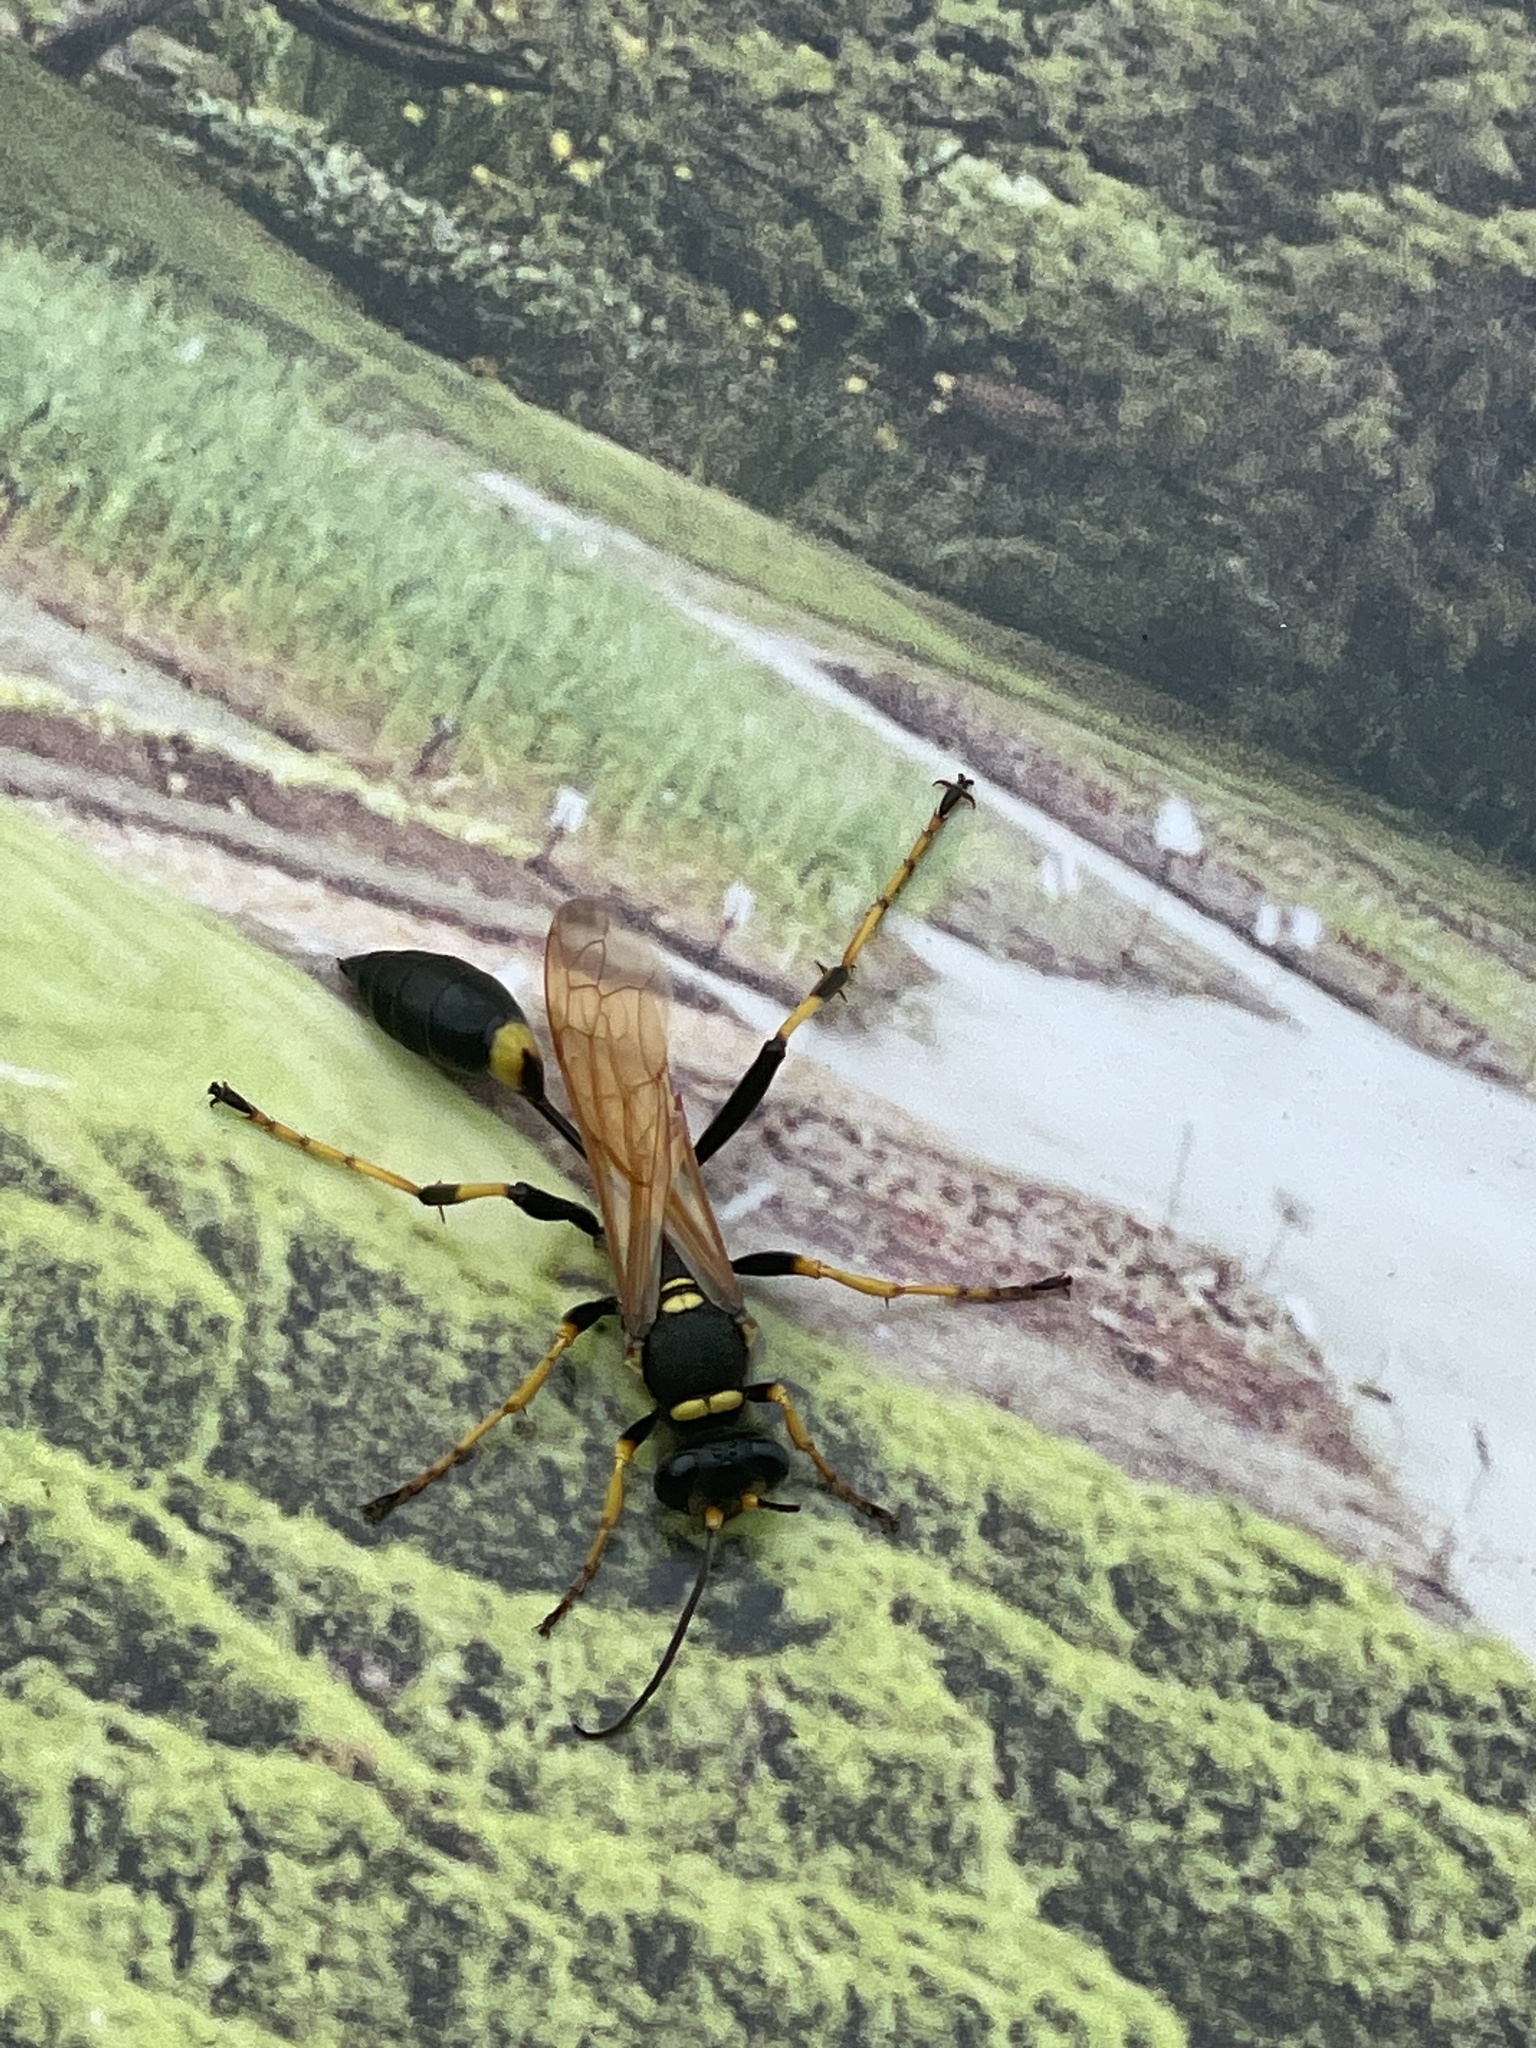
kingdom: Animalia
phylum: Arthropoda
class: Insecta
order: Hymenoptera
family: Sphecidae
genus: Sceliphron
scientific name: Sceliphron caementarium
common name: Mud dauber
